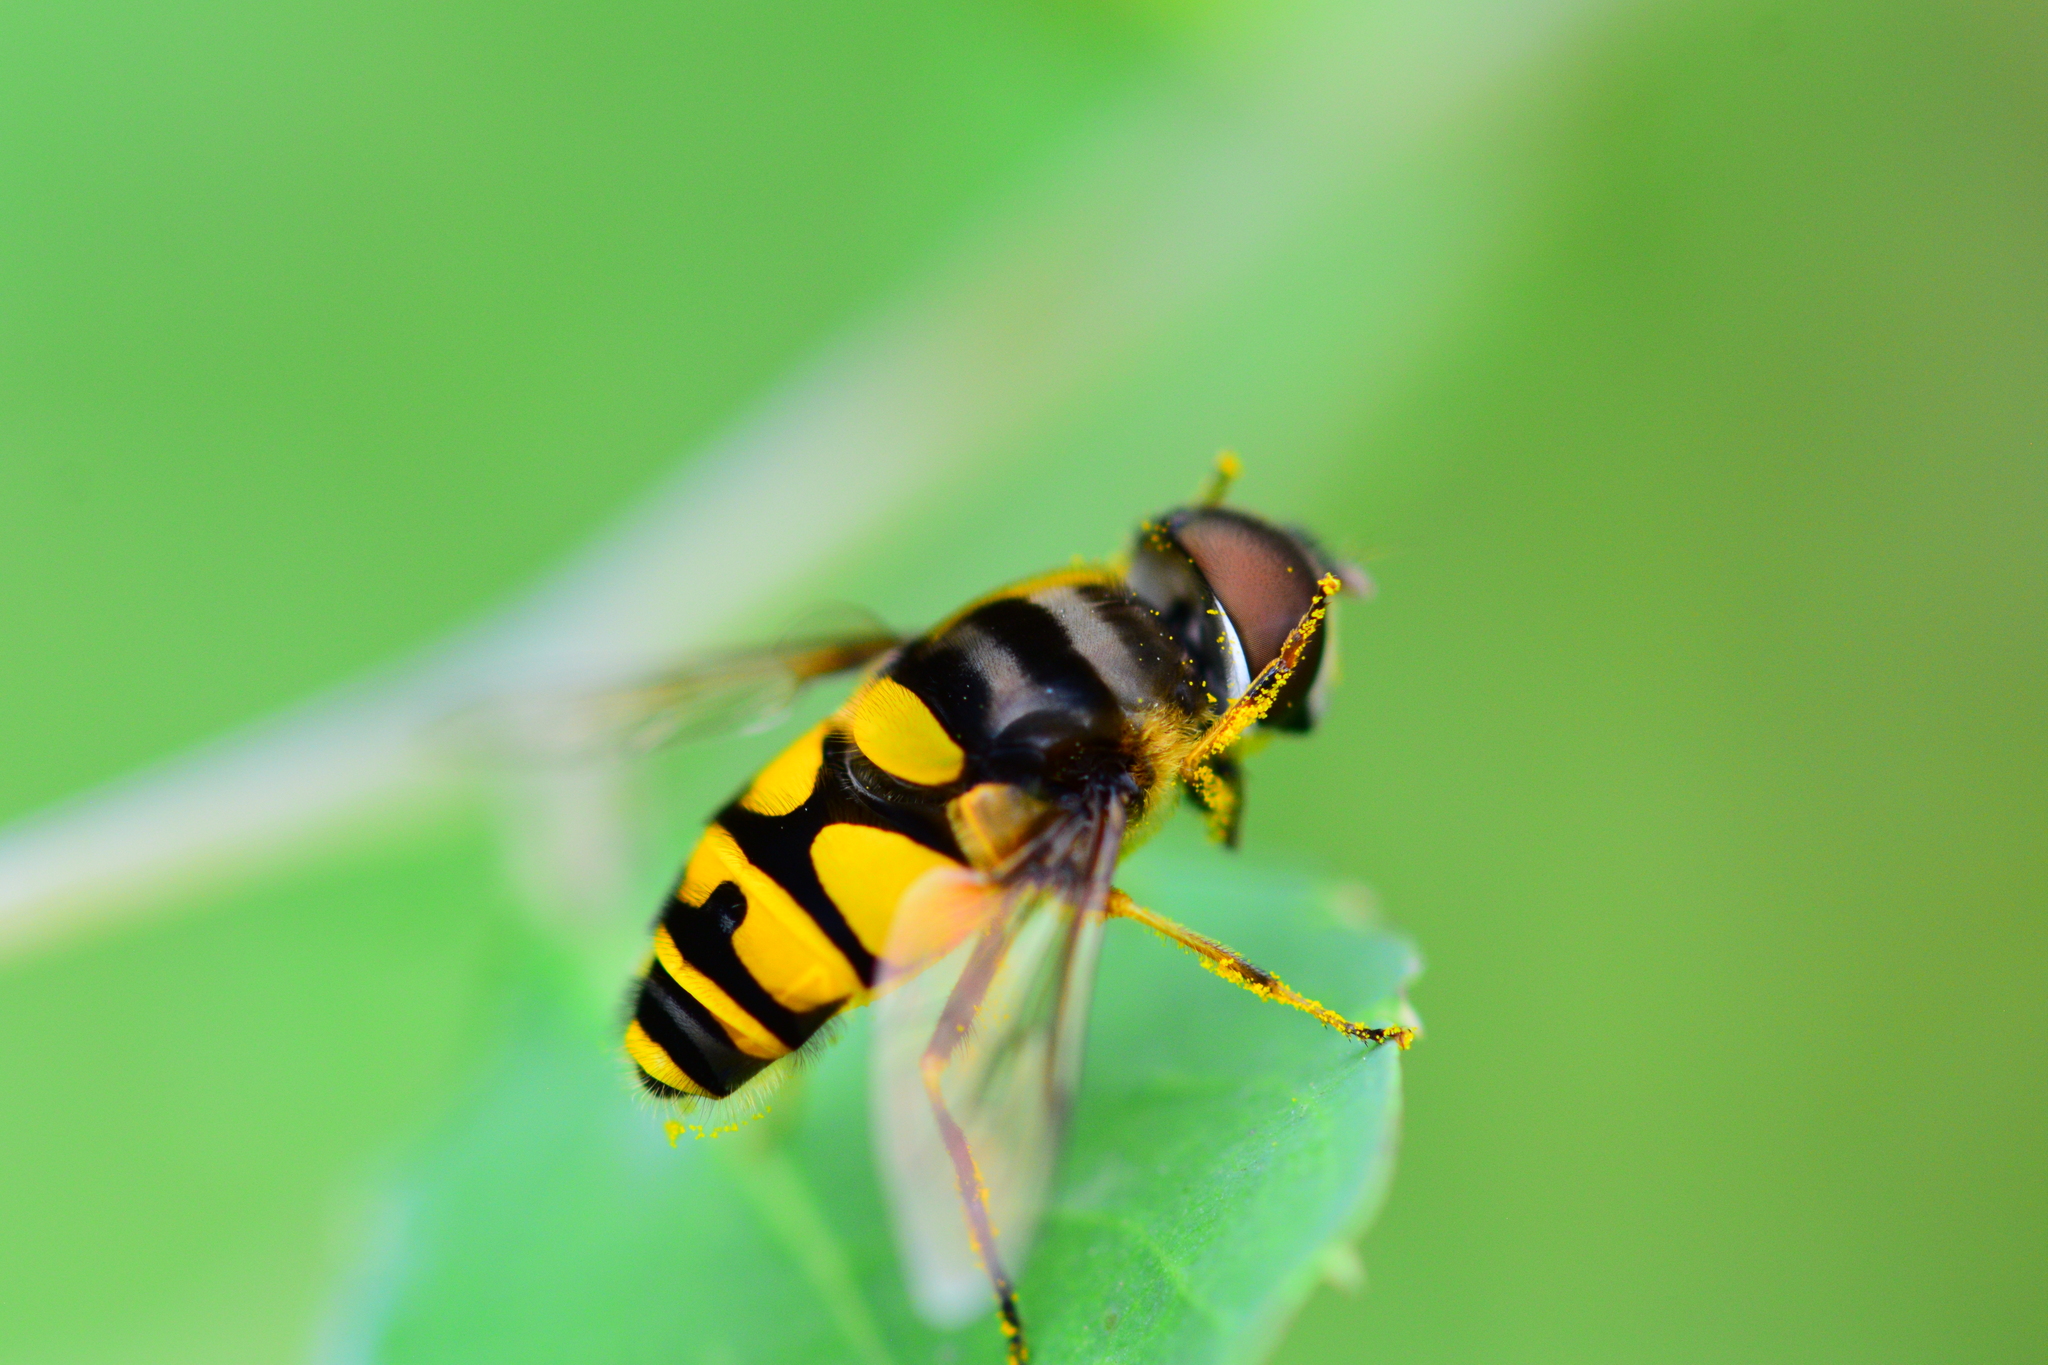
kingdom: Animalia
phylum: Arthropoda
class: Insecta
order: Diptera
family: Syrphidae
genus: Eristalis
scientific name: Eristalis transversa
